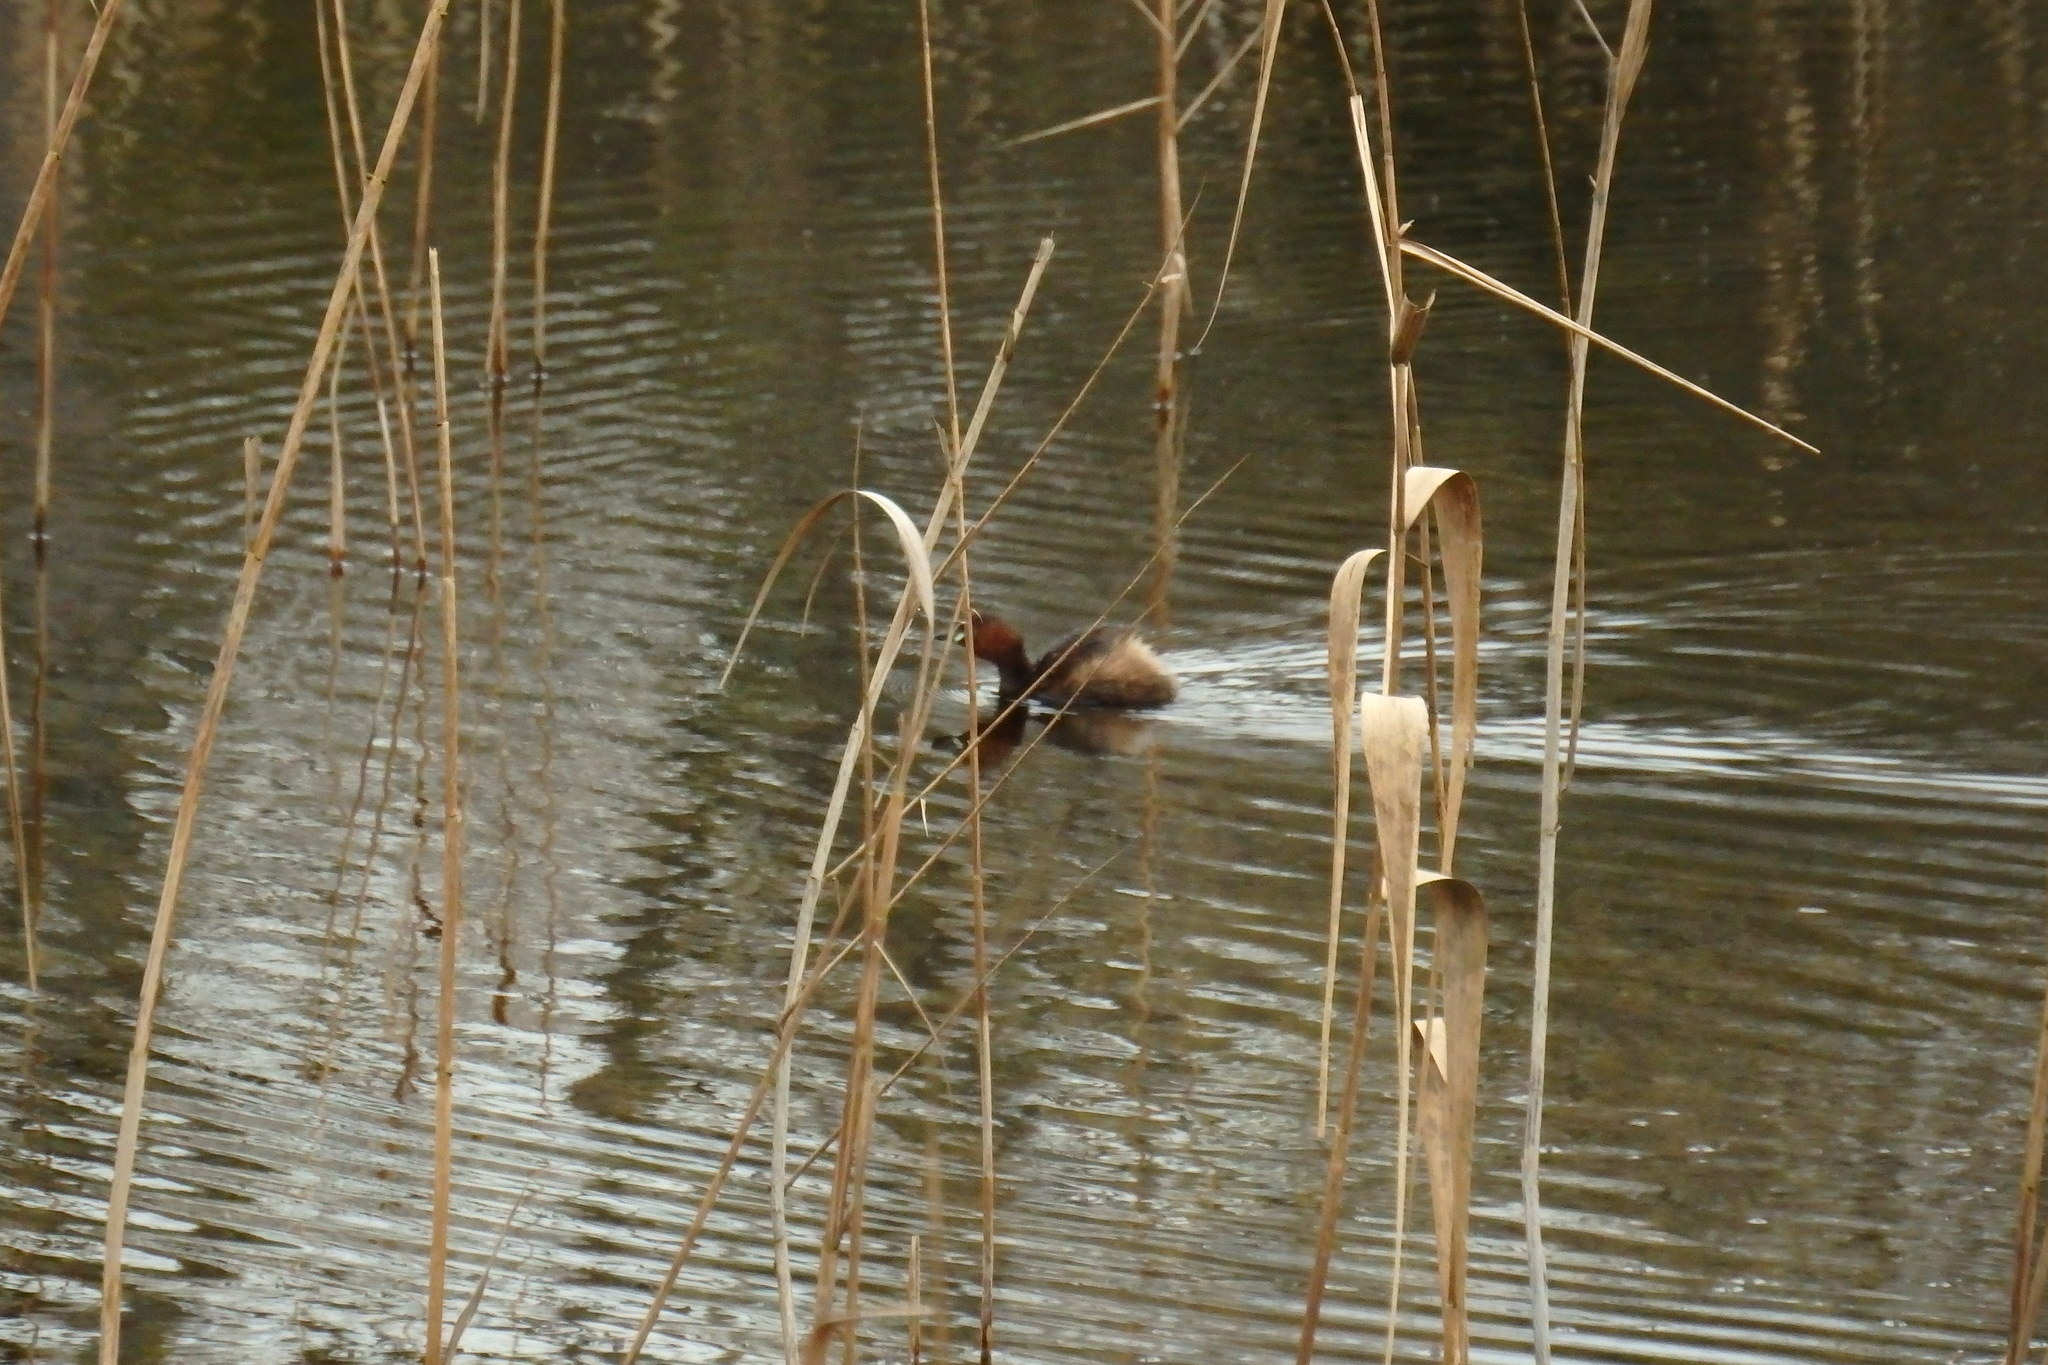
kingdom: Animalia
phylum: Chordata
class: Aves
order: Podicipediformes
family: Podicipedidae
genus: Tachybaptus
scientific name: Tachybaptus ruficollis
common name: Little grebe
